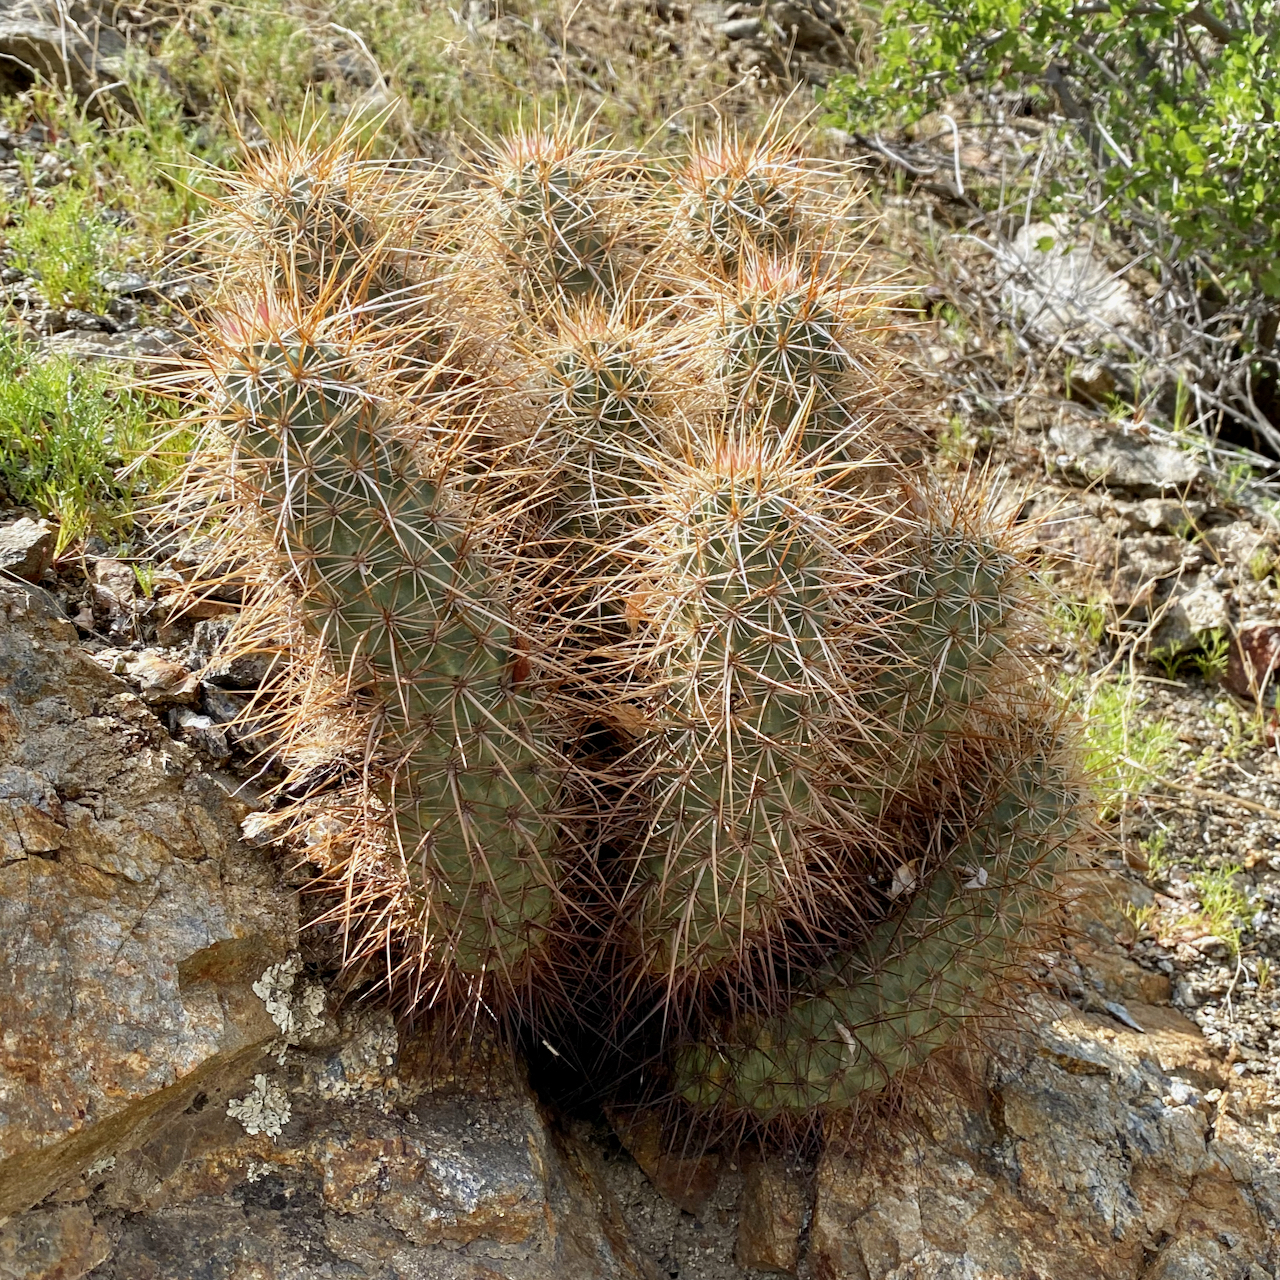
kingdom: Plantae
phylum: Tracheophyta
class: Magnoliopsida
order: Caryophyllales
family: Cactaceae
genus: Echinocereus
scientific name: Echinocereus engelmannii
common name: Engelmann's hedgehog cactus
